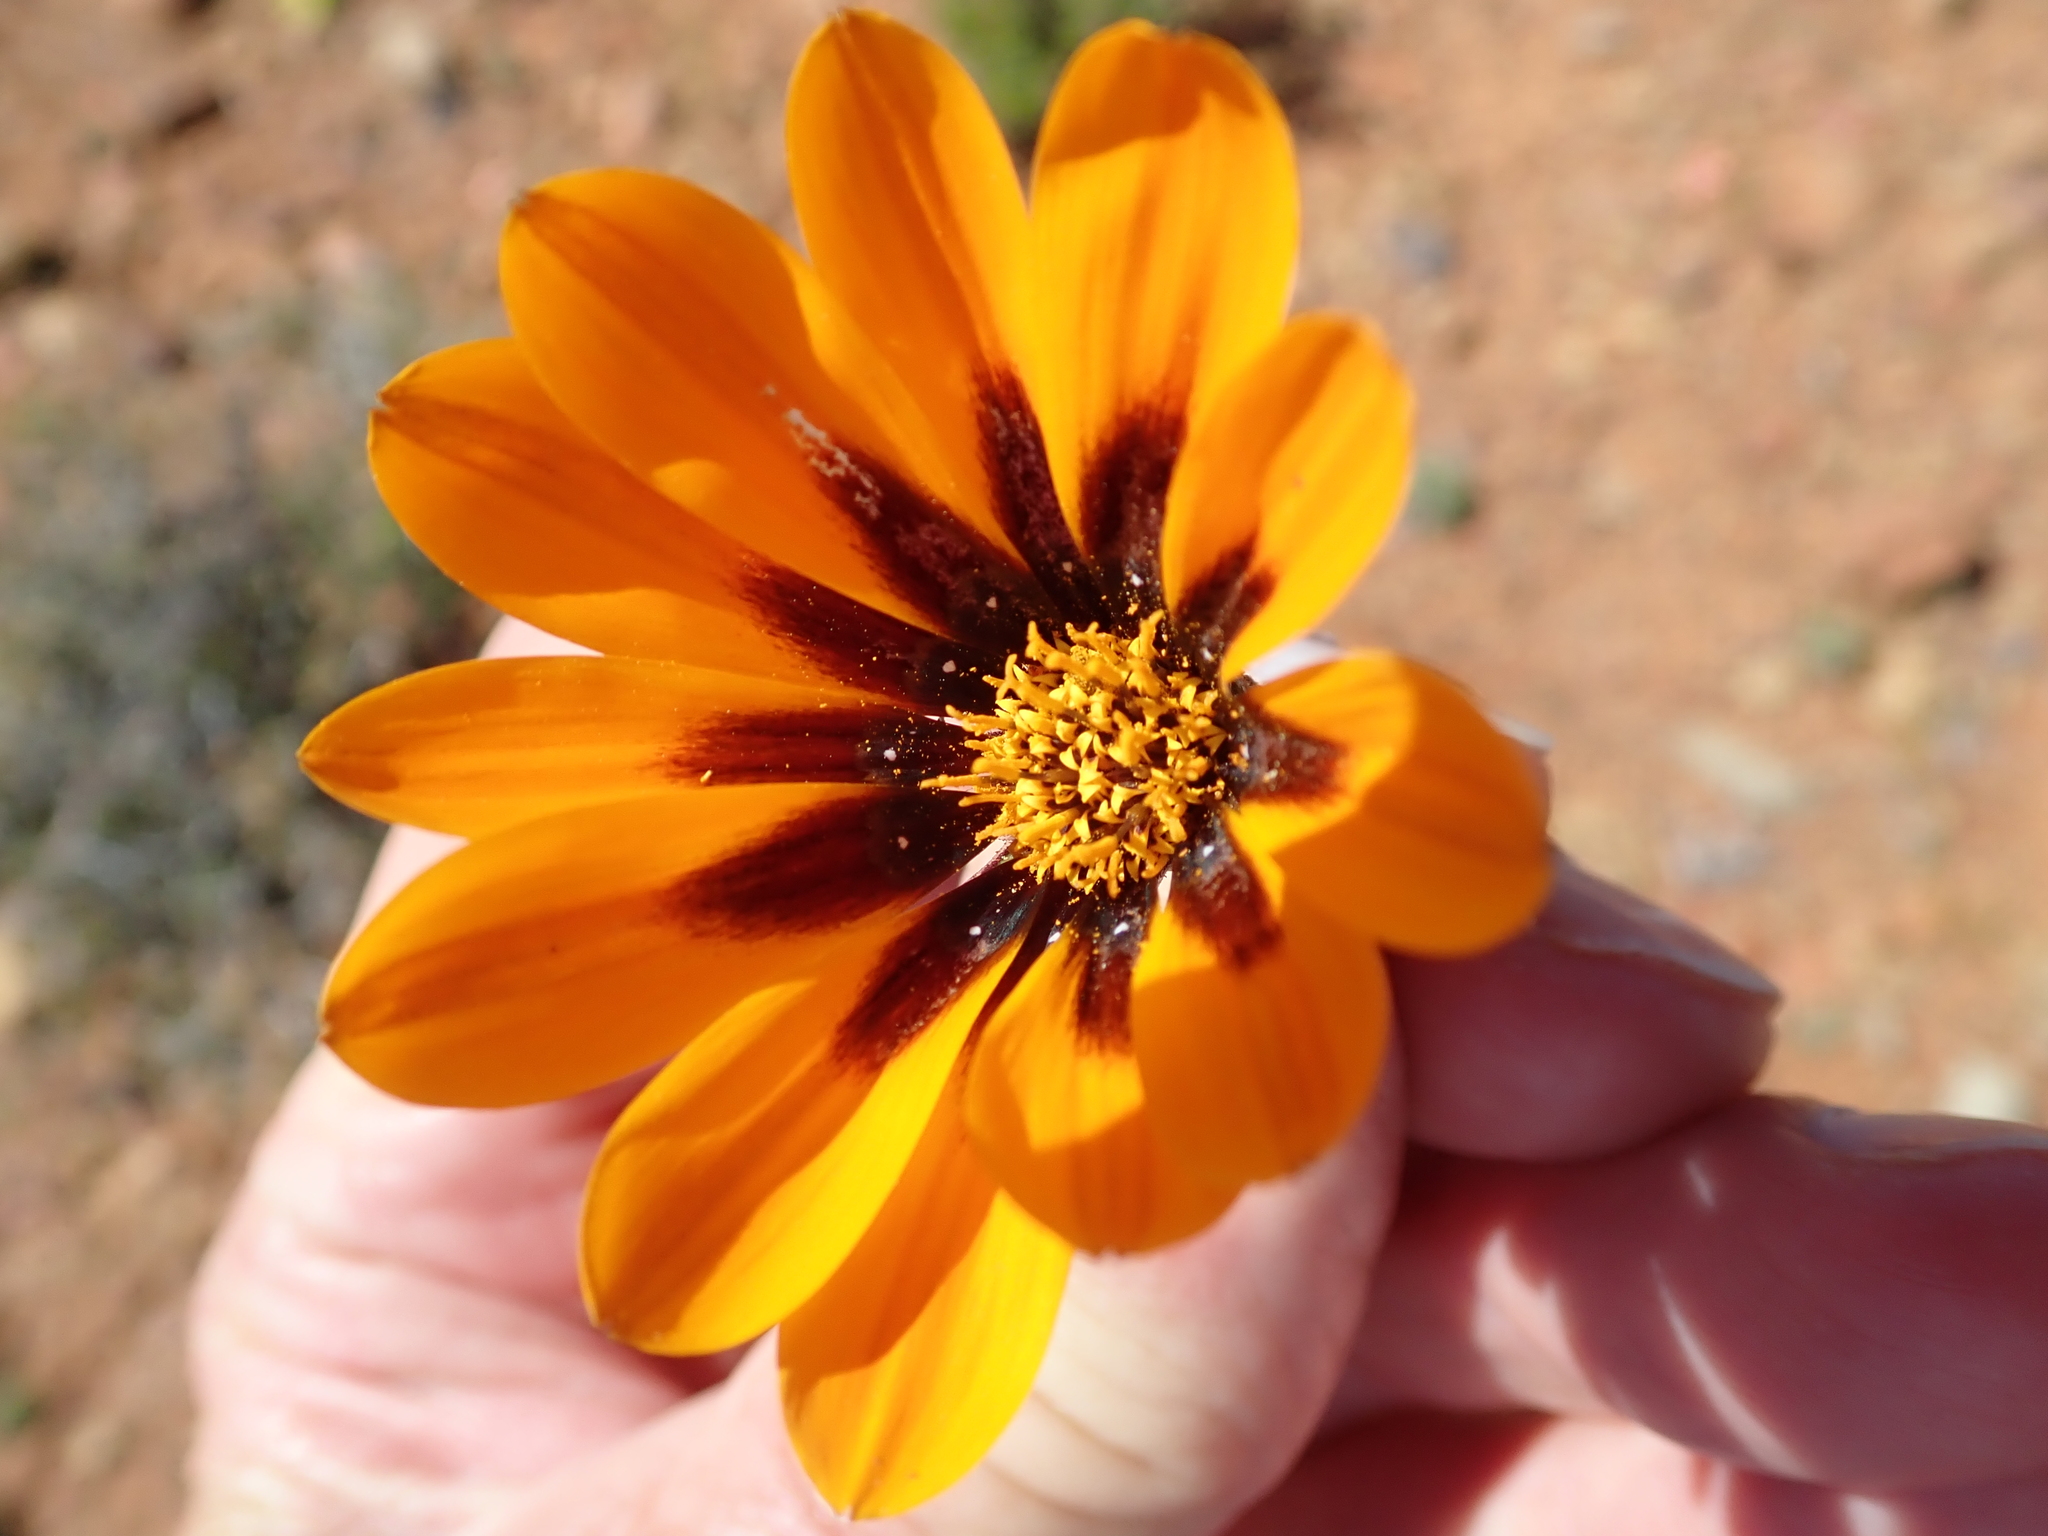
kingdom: Plantae
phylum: Tracheophyta
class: Magnoliopsida
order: Asterales
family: Asteraceae
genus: Gazania
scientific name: Gazania heterochaeta
